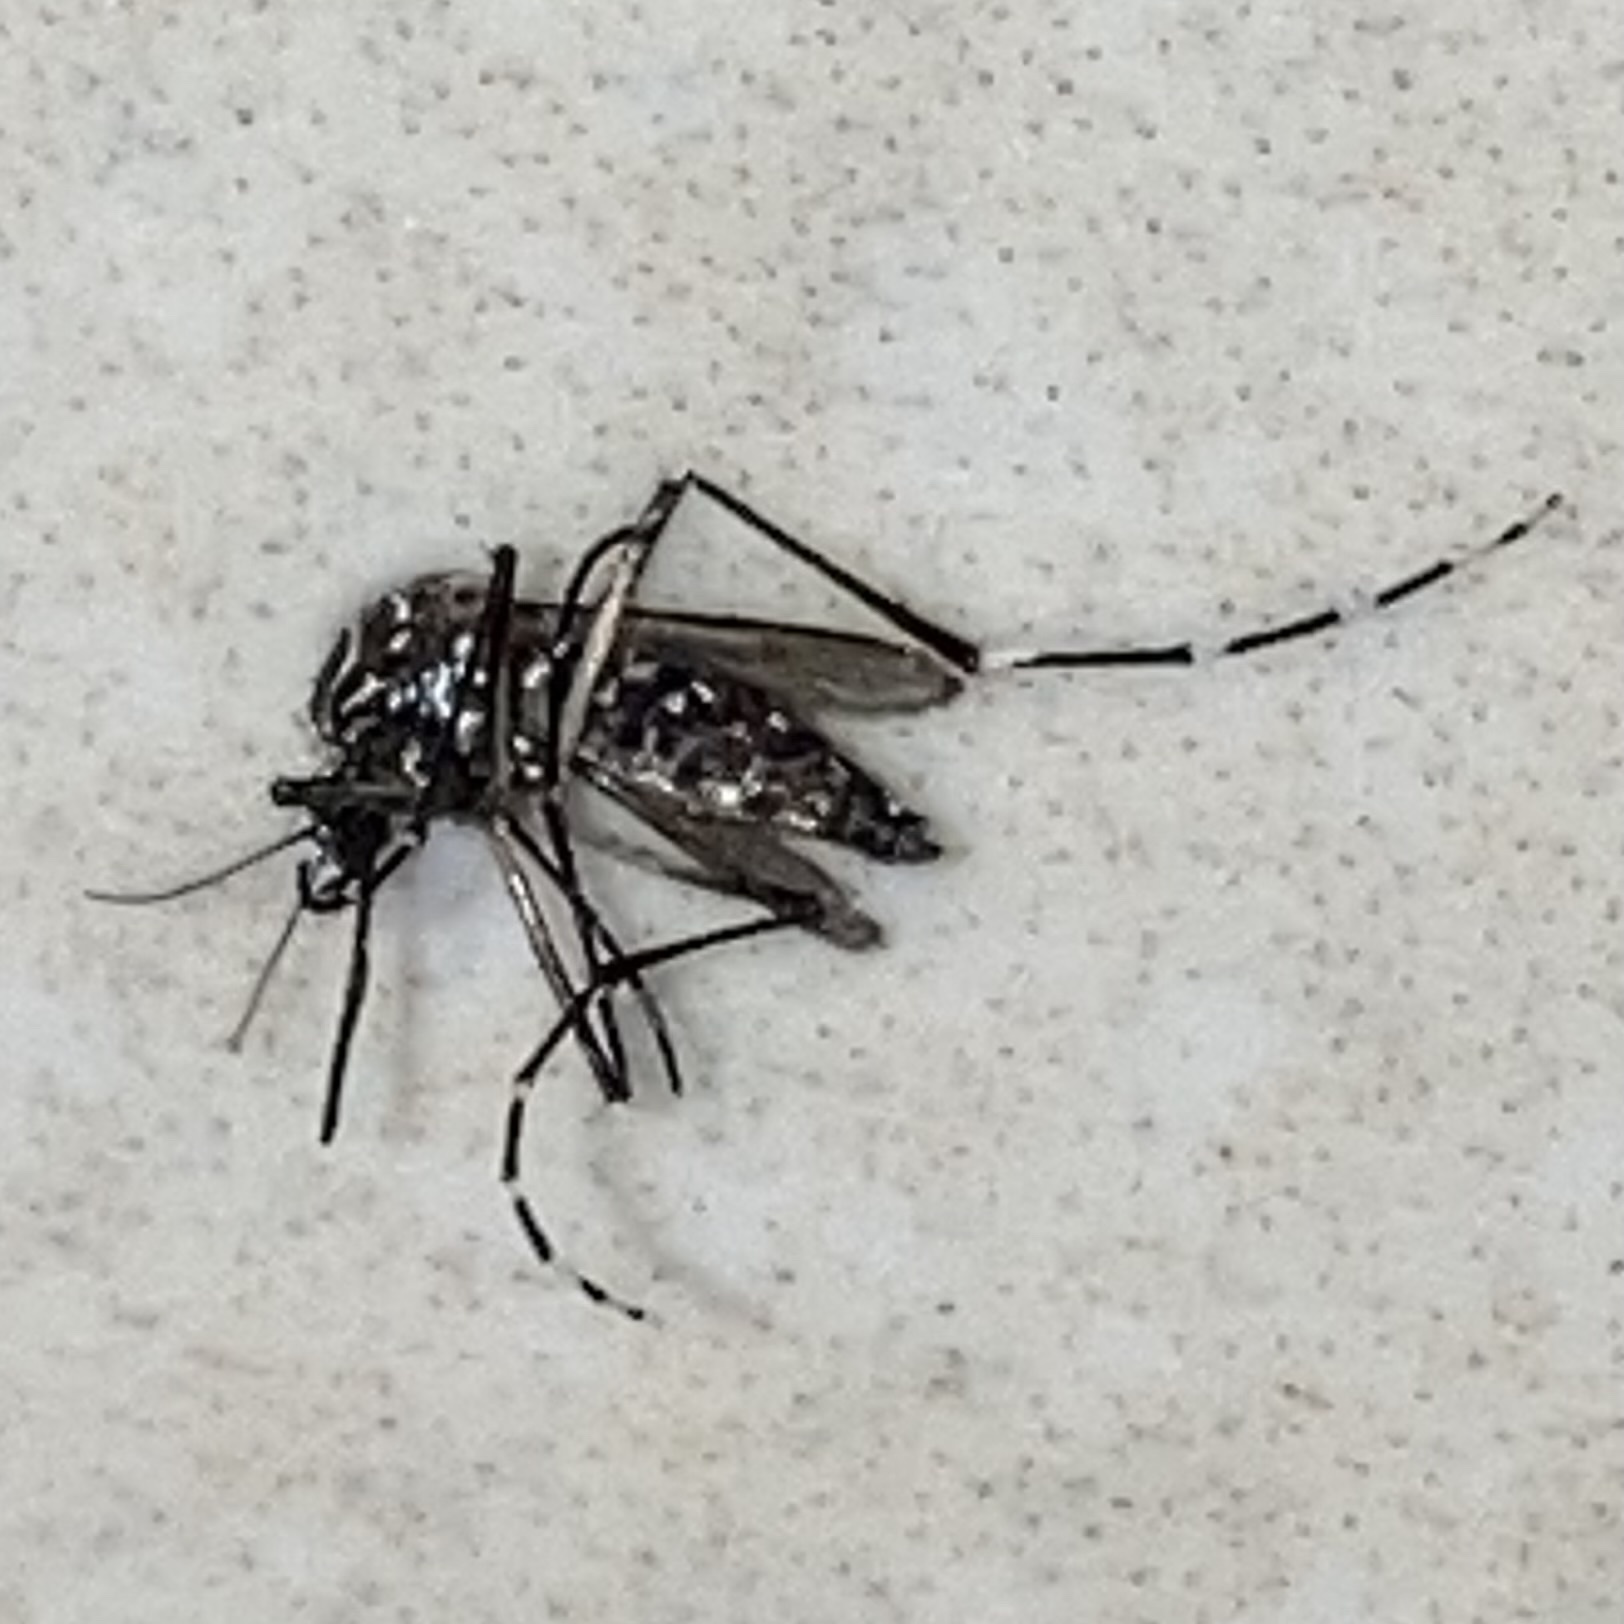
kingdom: Animalia
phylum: Arthropoda
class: Insecta
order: Diptera
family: Culicidae
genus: Aedes
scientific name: Aedes aegypti
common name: Yellow fever mosquito
